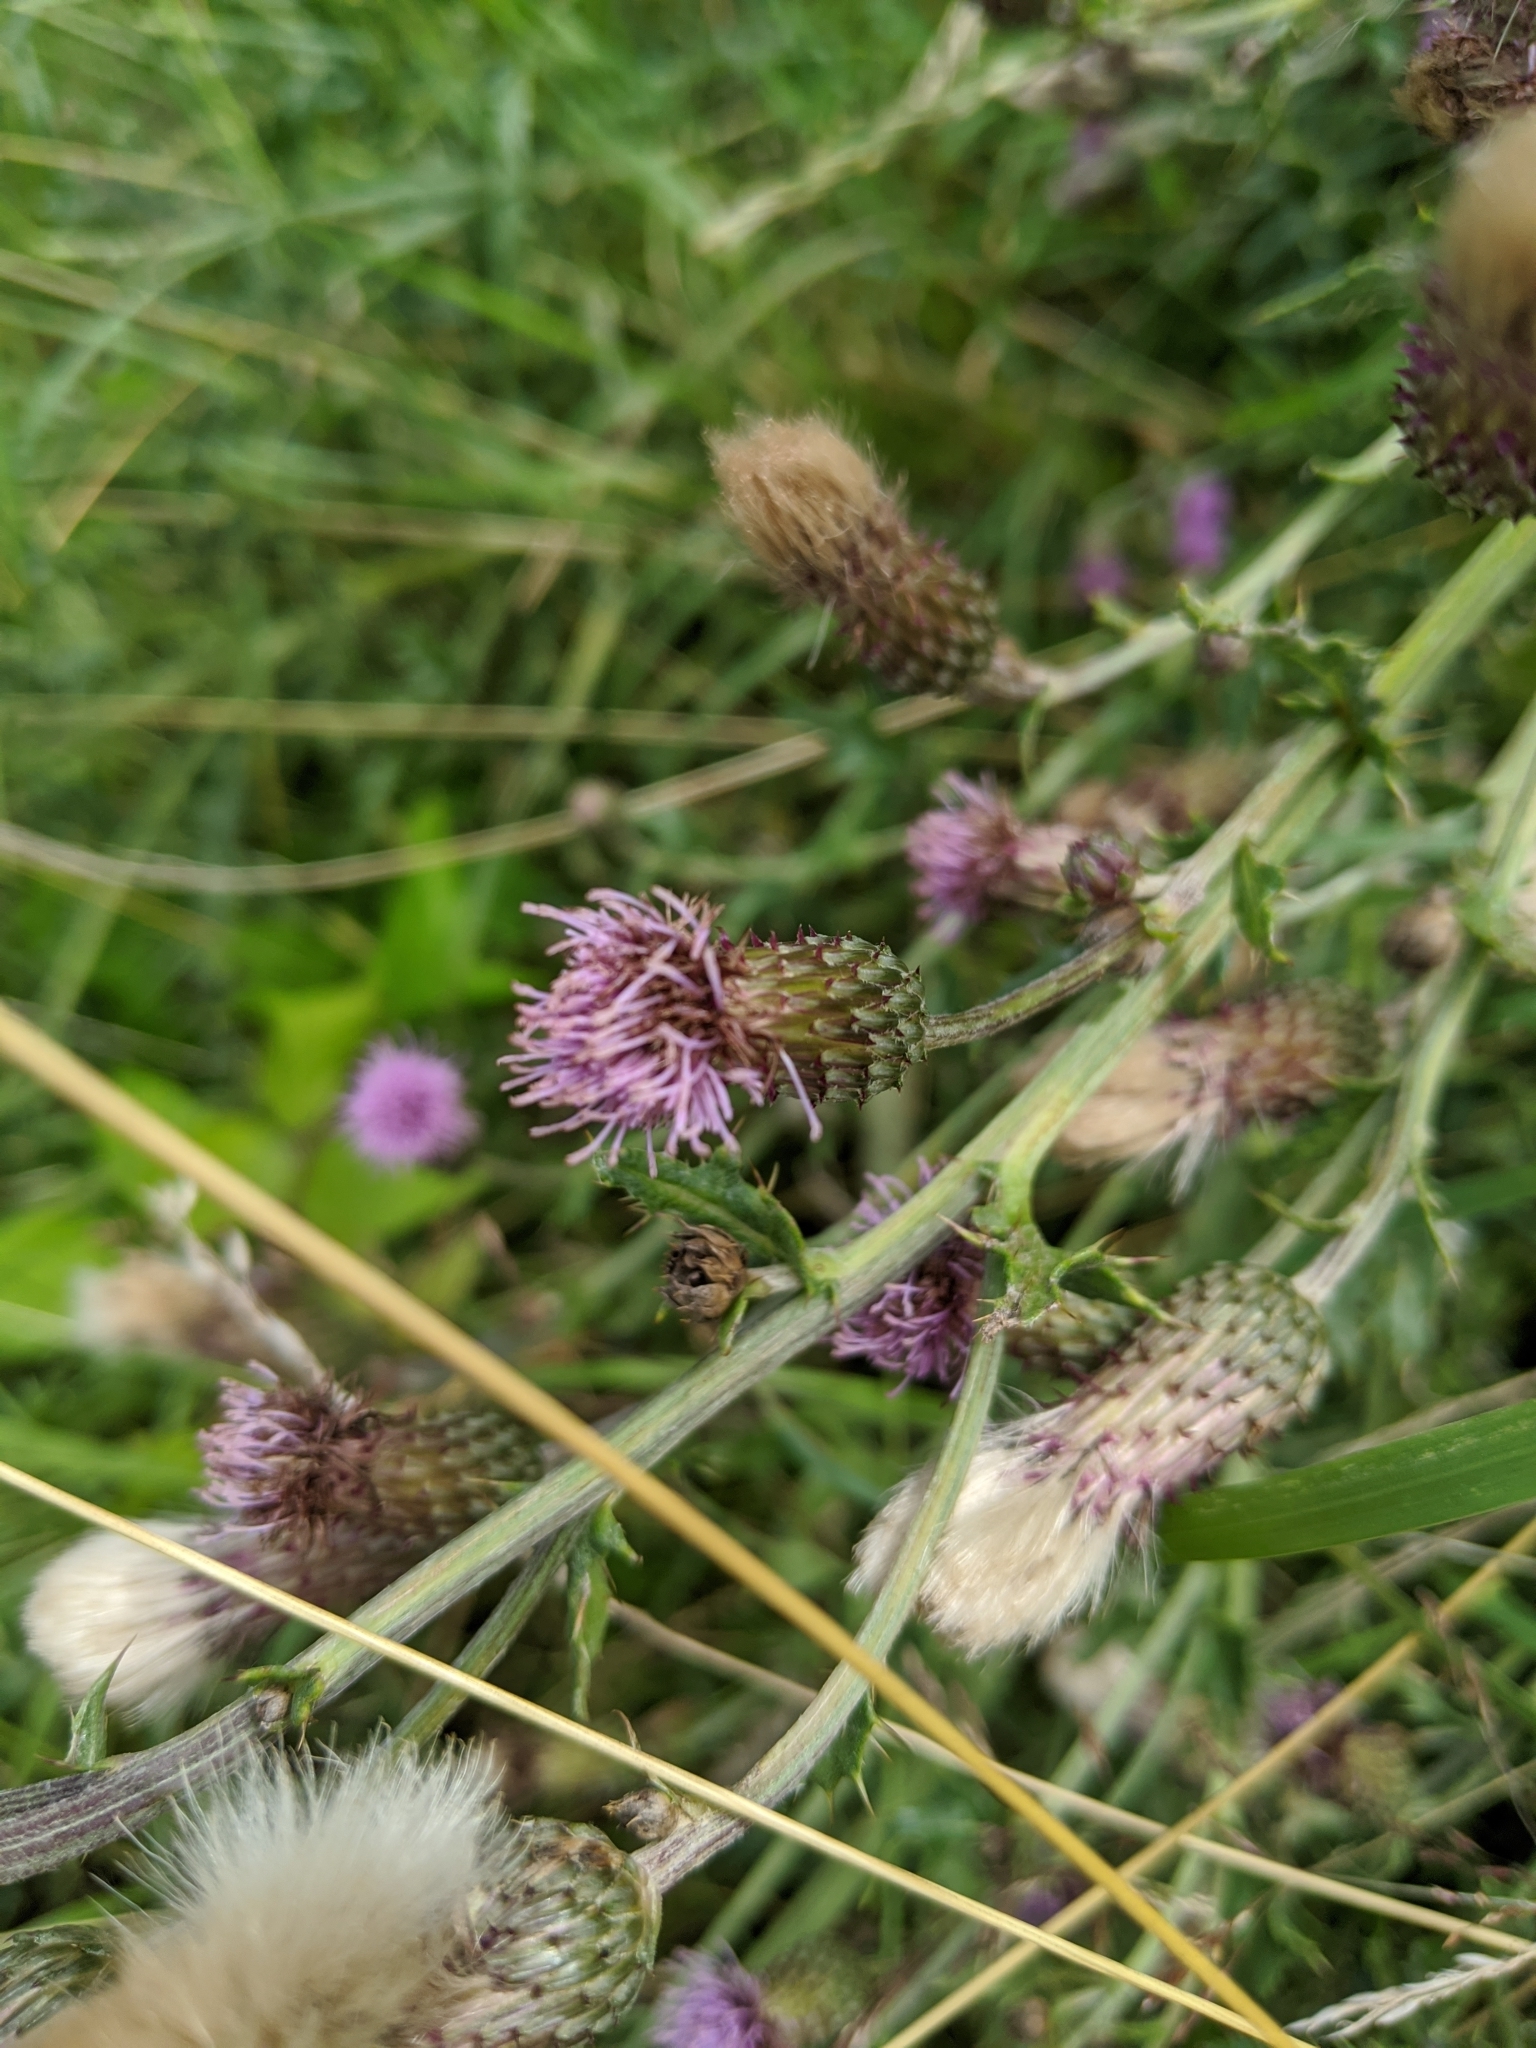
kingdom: Plantae
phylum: Tracheophyta
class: Magnoliopsida
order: Asterales
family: Asteraceae
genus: Cirsium
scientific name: Cirsium arvense
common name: Creeping thistle
